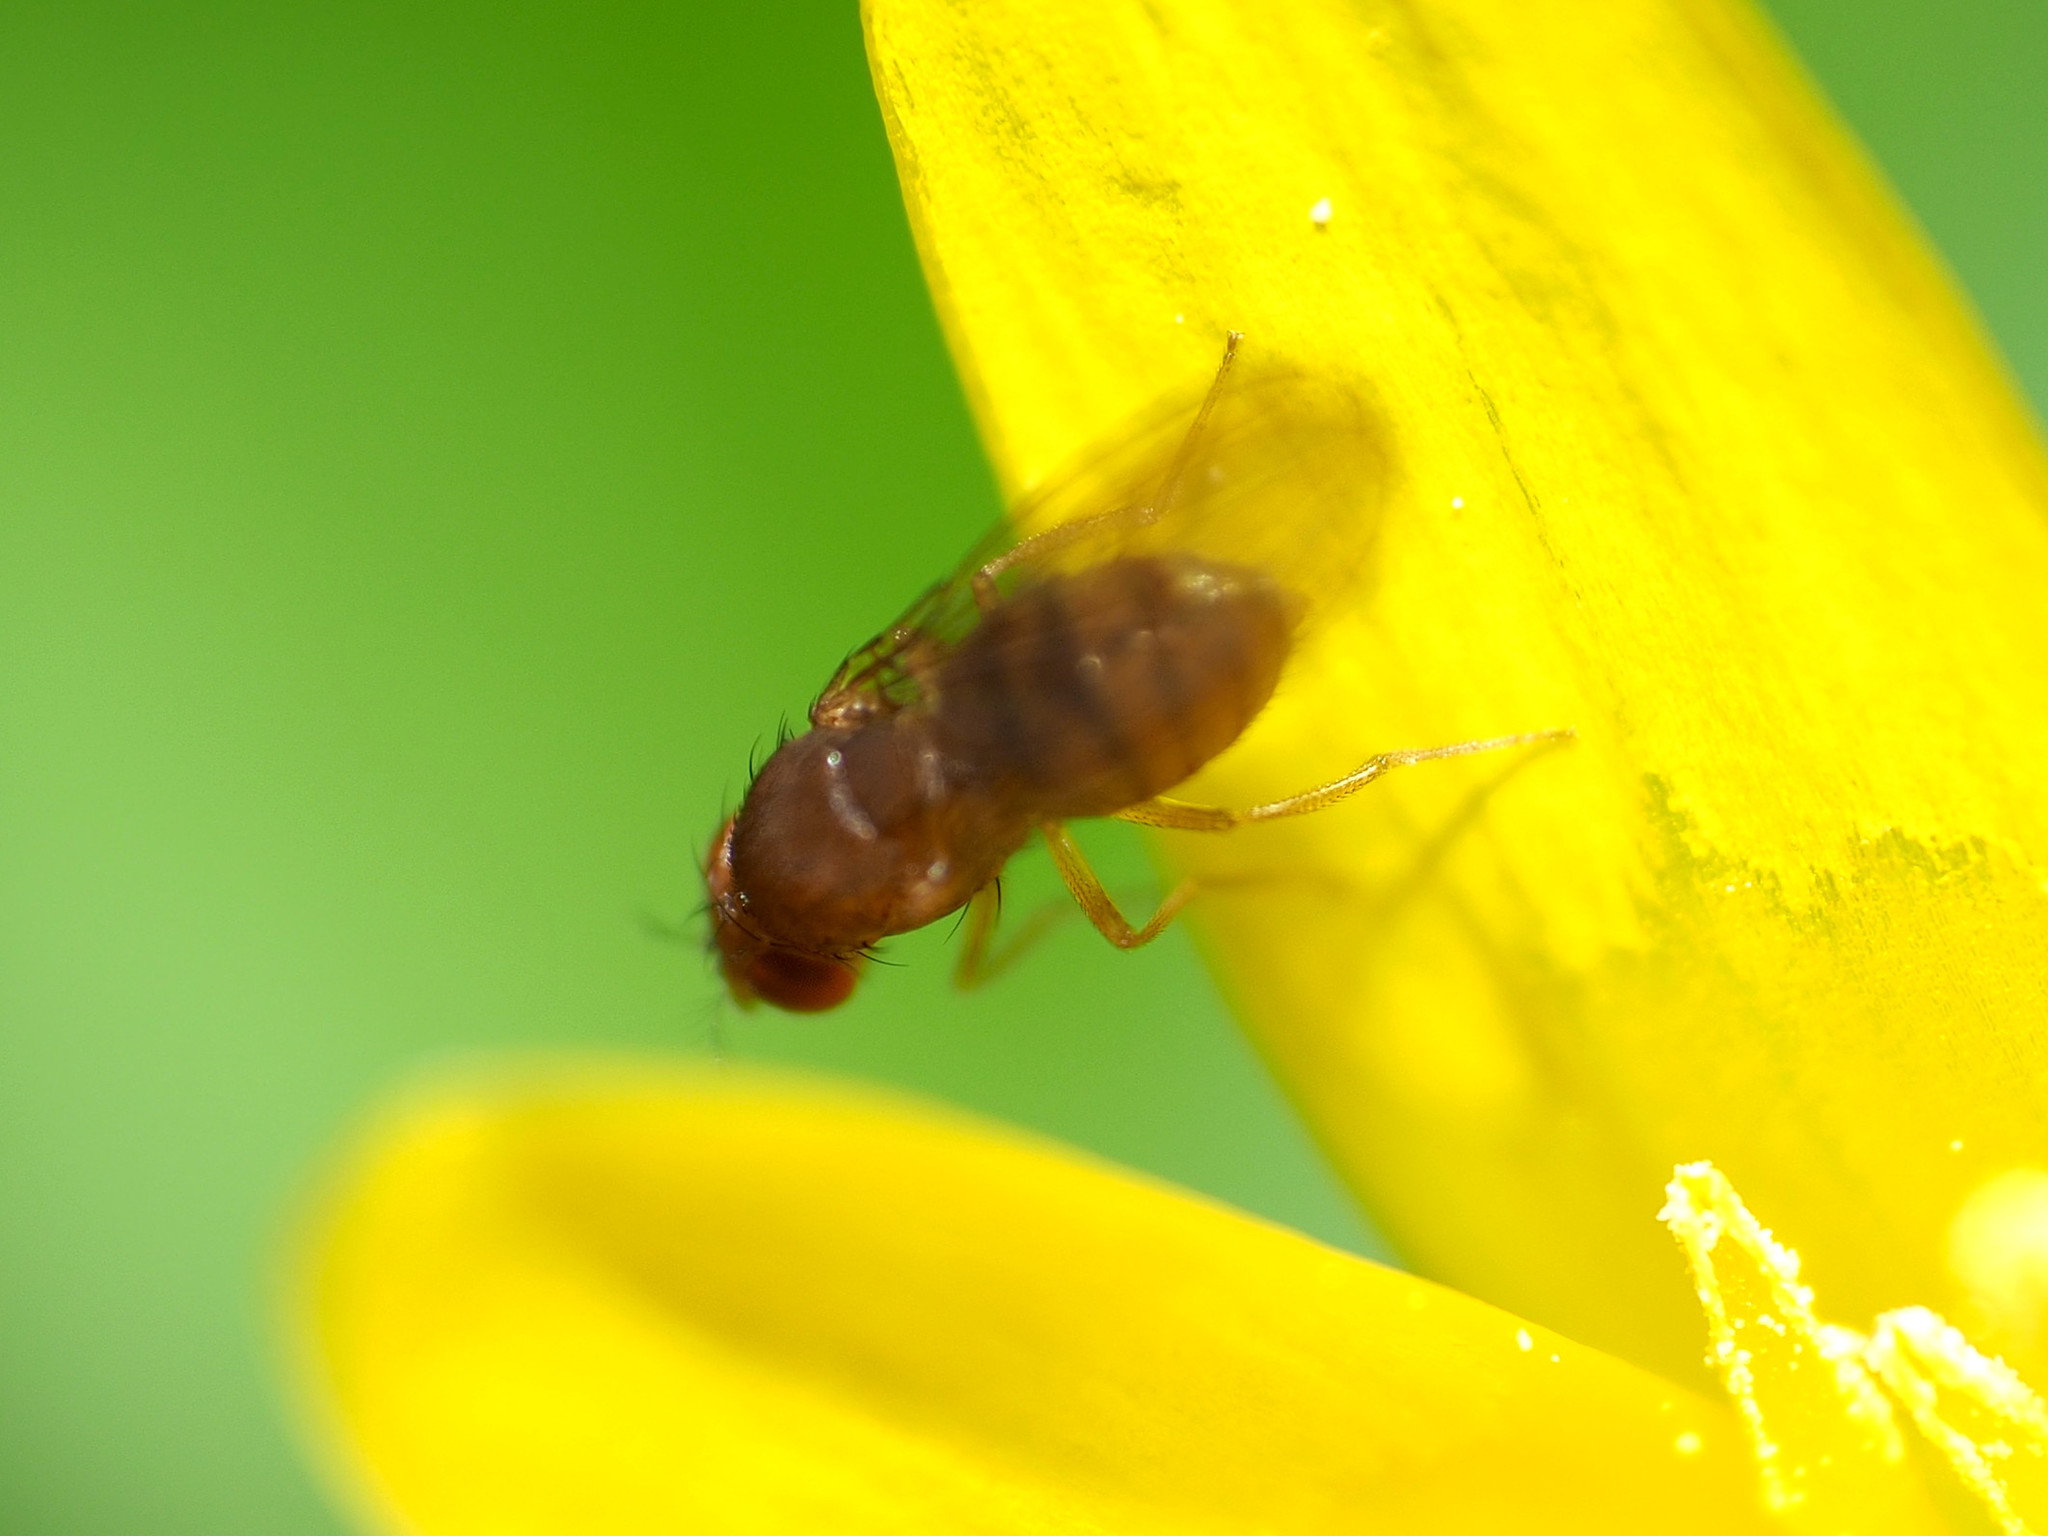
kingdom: Animalia
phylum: Arthropoda
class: Insecta
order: Diptera
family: Drosophilidae
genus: Drosophila
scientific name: Drosophila tripunctata
